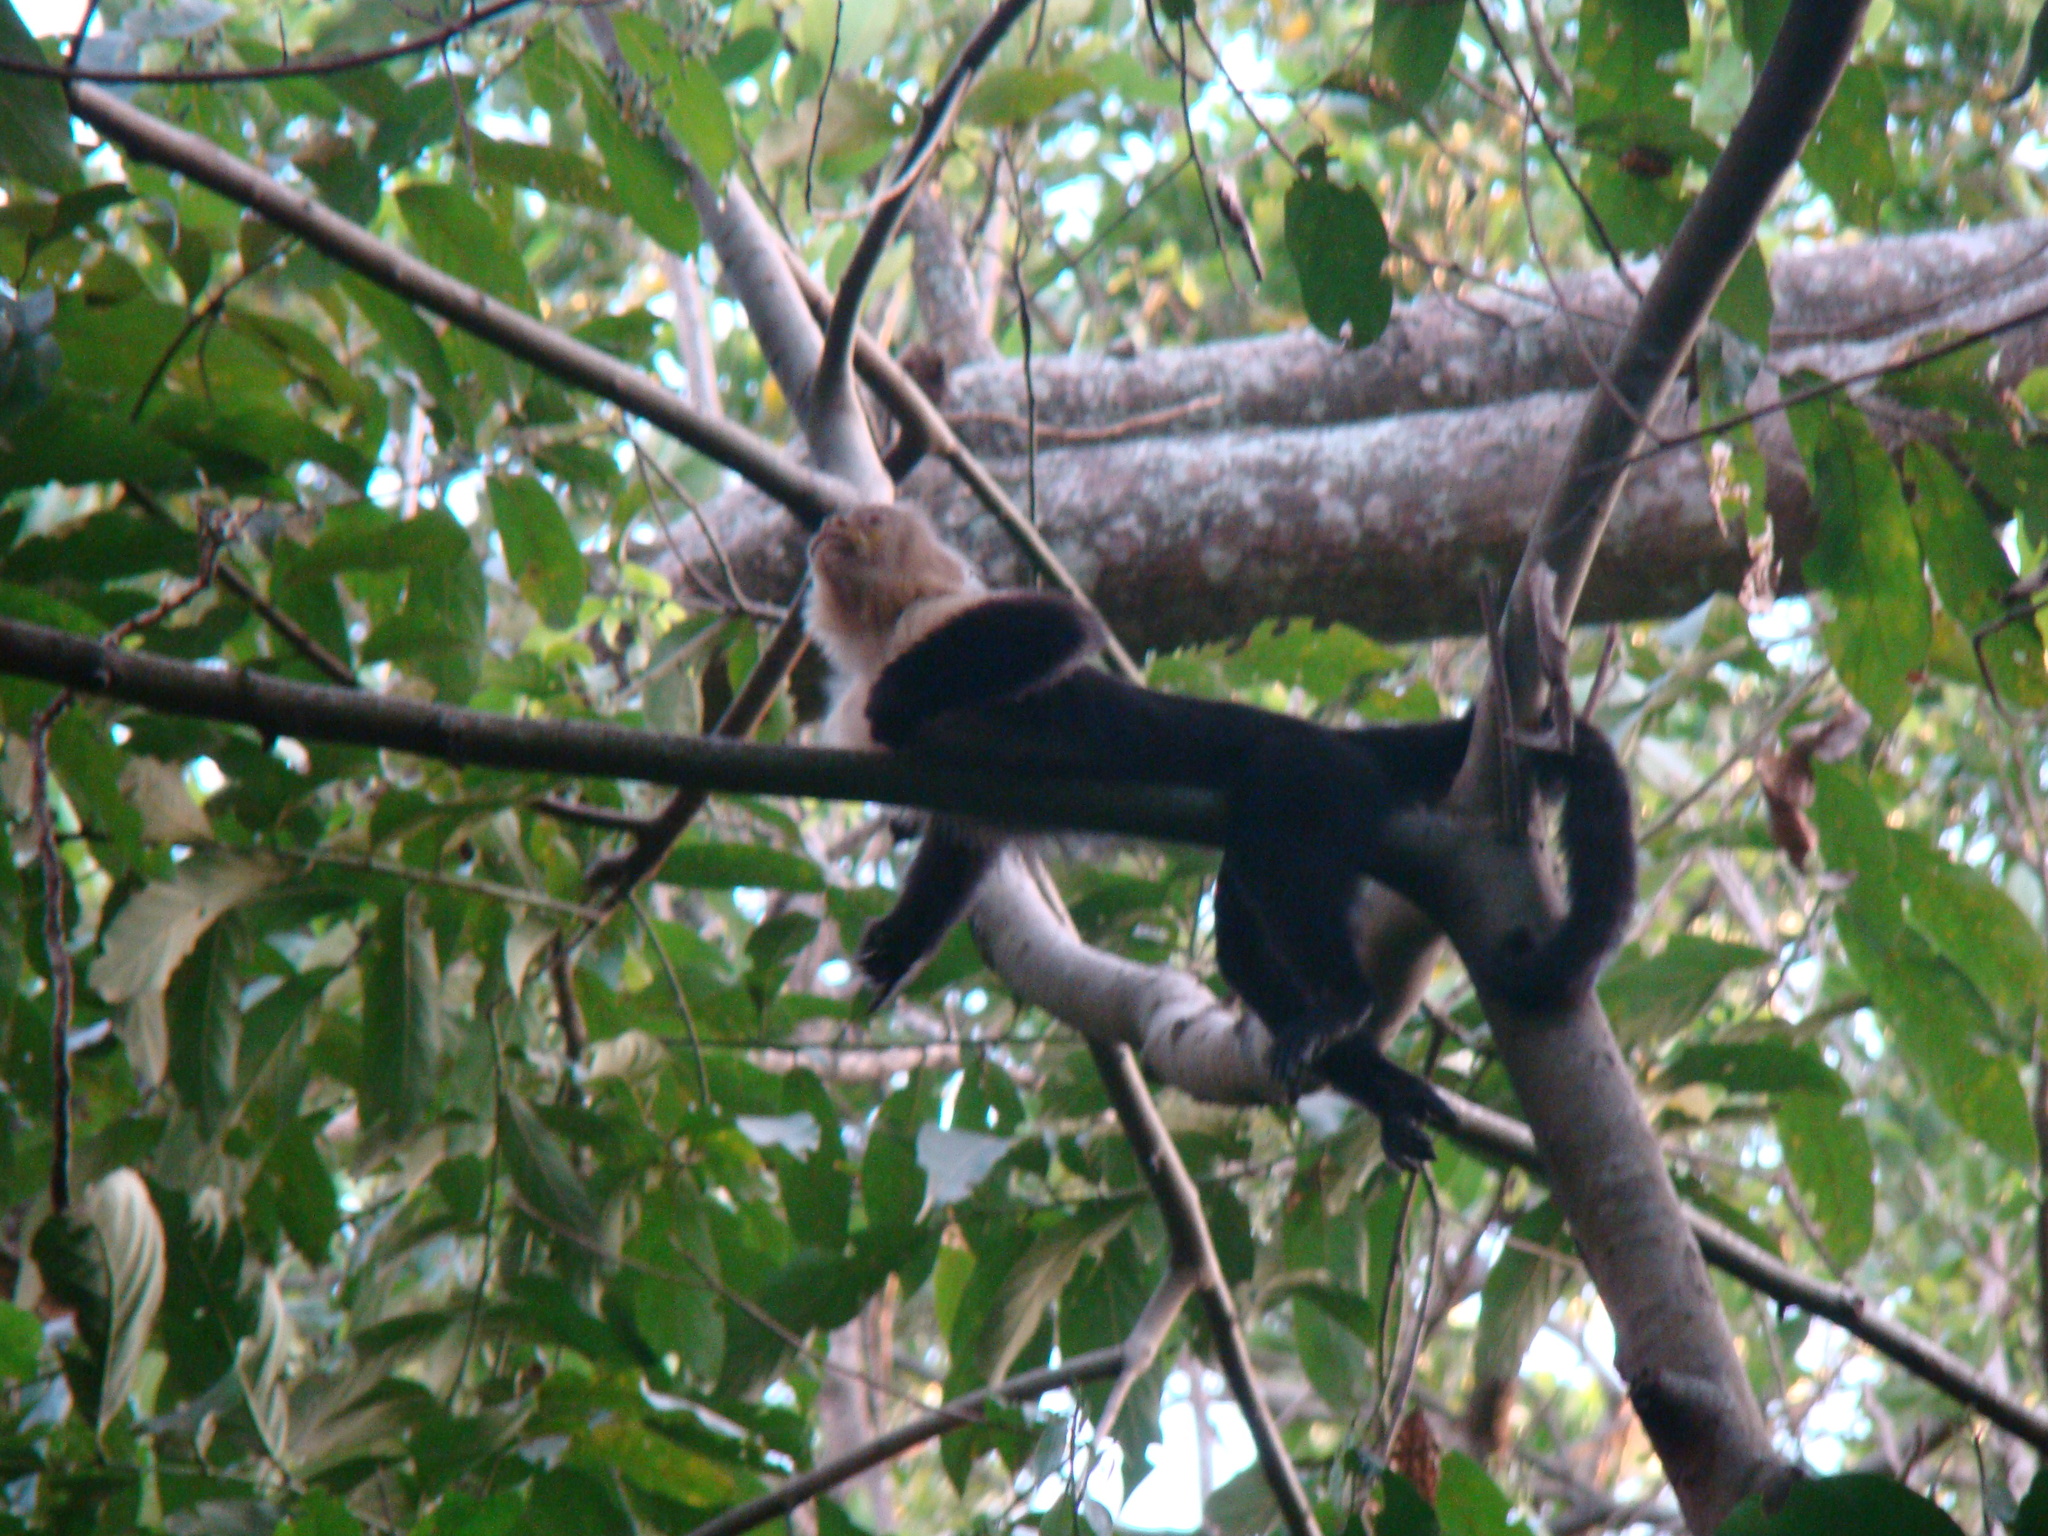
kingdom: Animalia
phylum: Chordata
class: Mammalia
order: Primates
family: Cebidae
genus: Cebus
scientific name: Cebus imitator
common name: Panamanian white-faced capuchin
